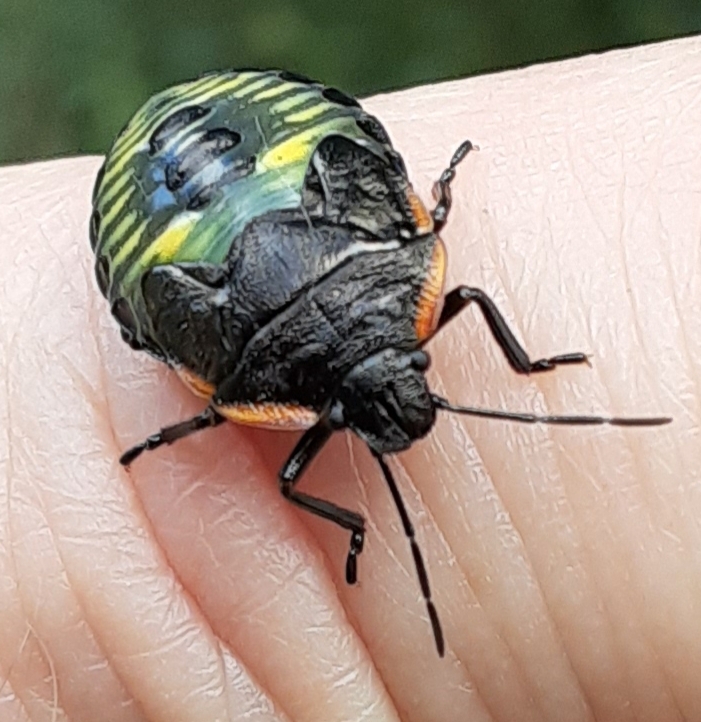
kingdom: Animalia
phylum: Arthropoda
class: Insecta
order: Hemiptera
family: Pentatomidae
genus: Chinavia
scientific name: Chinavia hilaris
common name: Green stink bug
